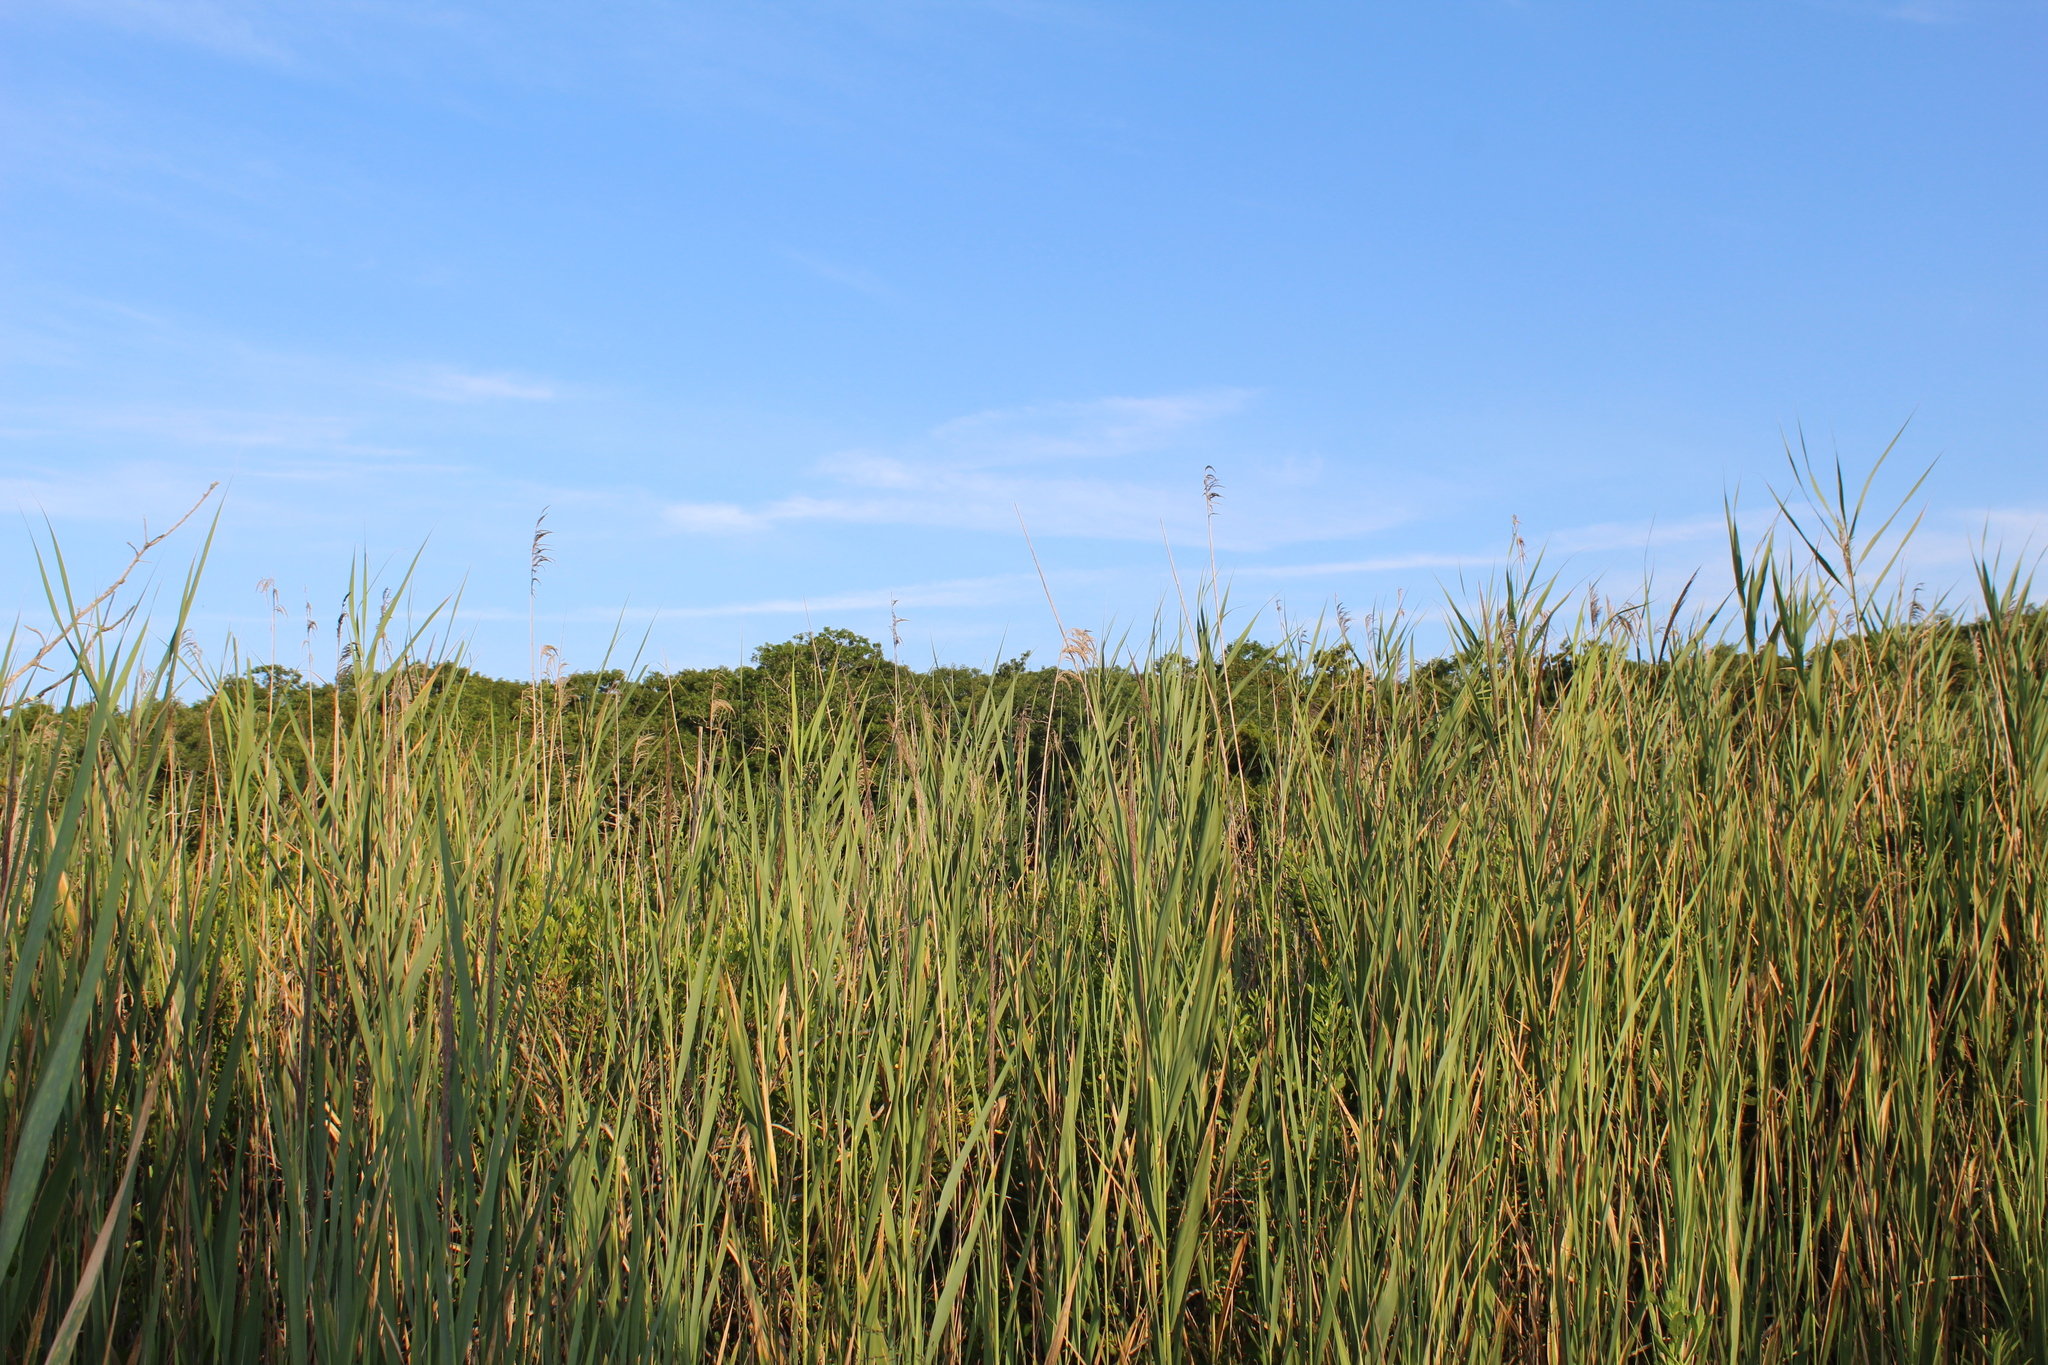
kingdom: Plantae
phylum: Tracheophyta
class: Liliopsida
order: Poales
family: Poaceae
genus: Phragmites
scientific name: Phragmites australis
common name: Common reed
